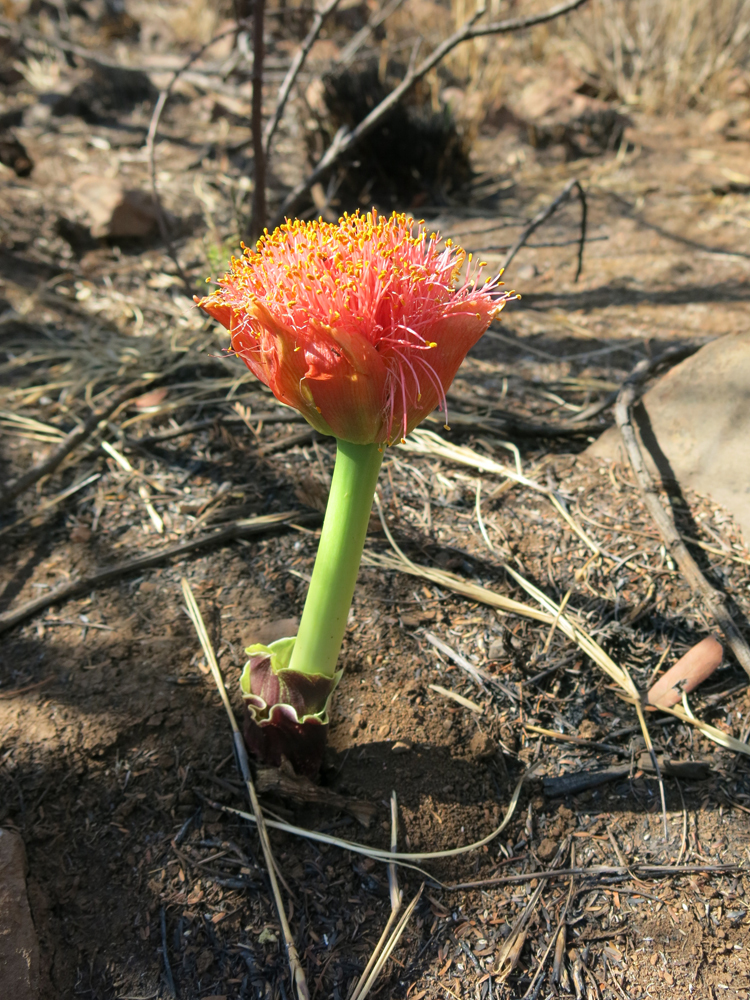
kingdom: Plantae
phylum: Tracheophyta
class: Liliopsida
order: Asparagales
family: Amaryllidaceae
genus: Scadoxus
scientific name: Scadoxus puniceus
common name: Royal-paintbrush
